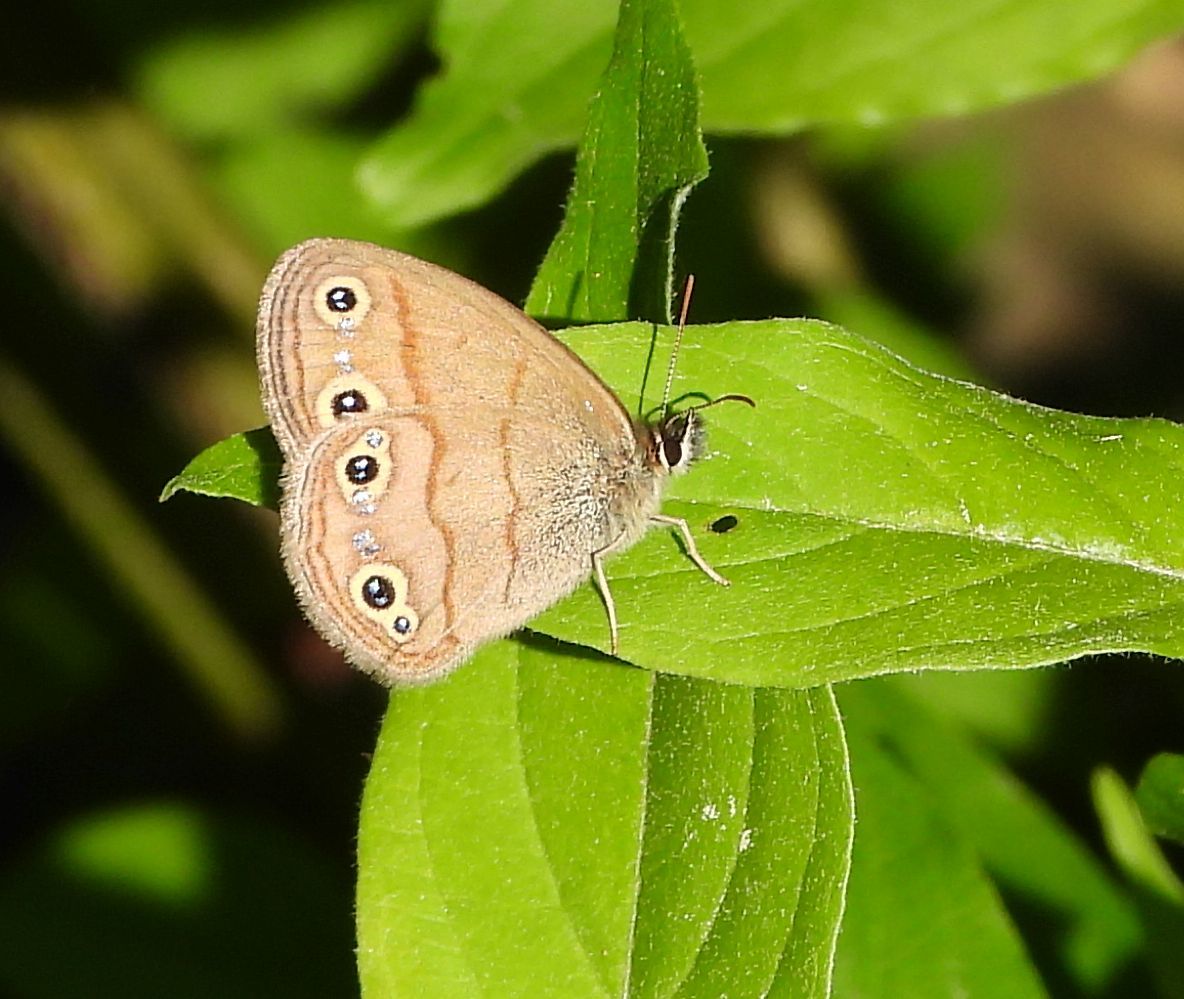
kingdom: Animalia
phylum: Arthropoda
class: Insecta
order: Lepidoptera
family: Nymphalidae
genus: Euptychia
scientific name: Euptychia cymela
